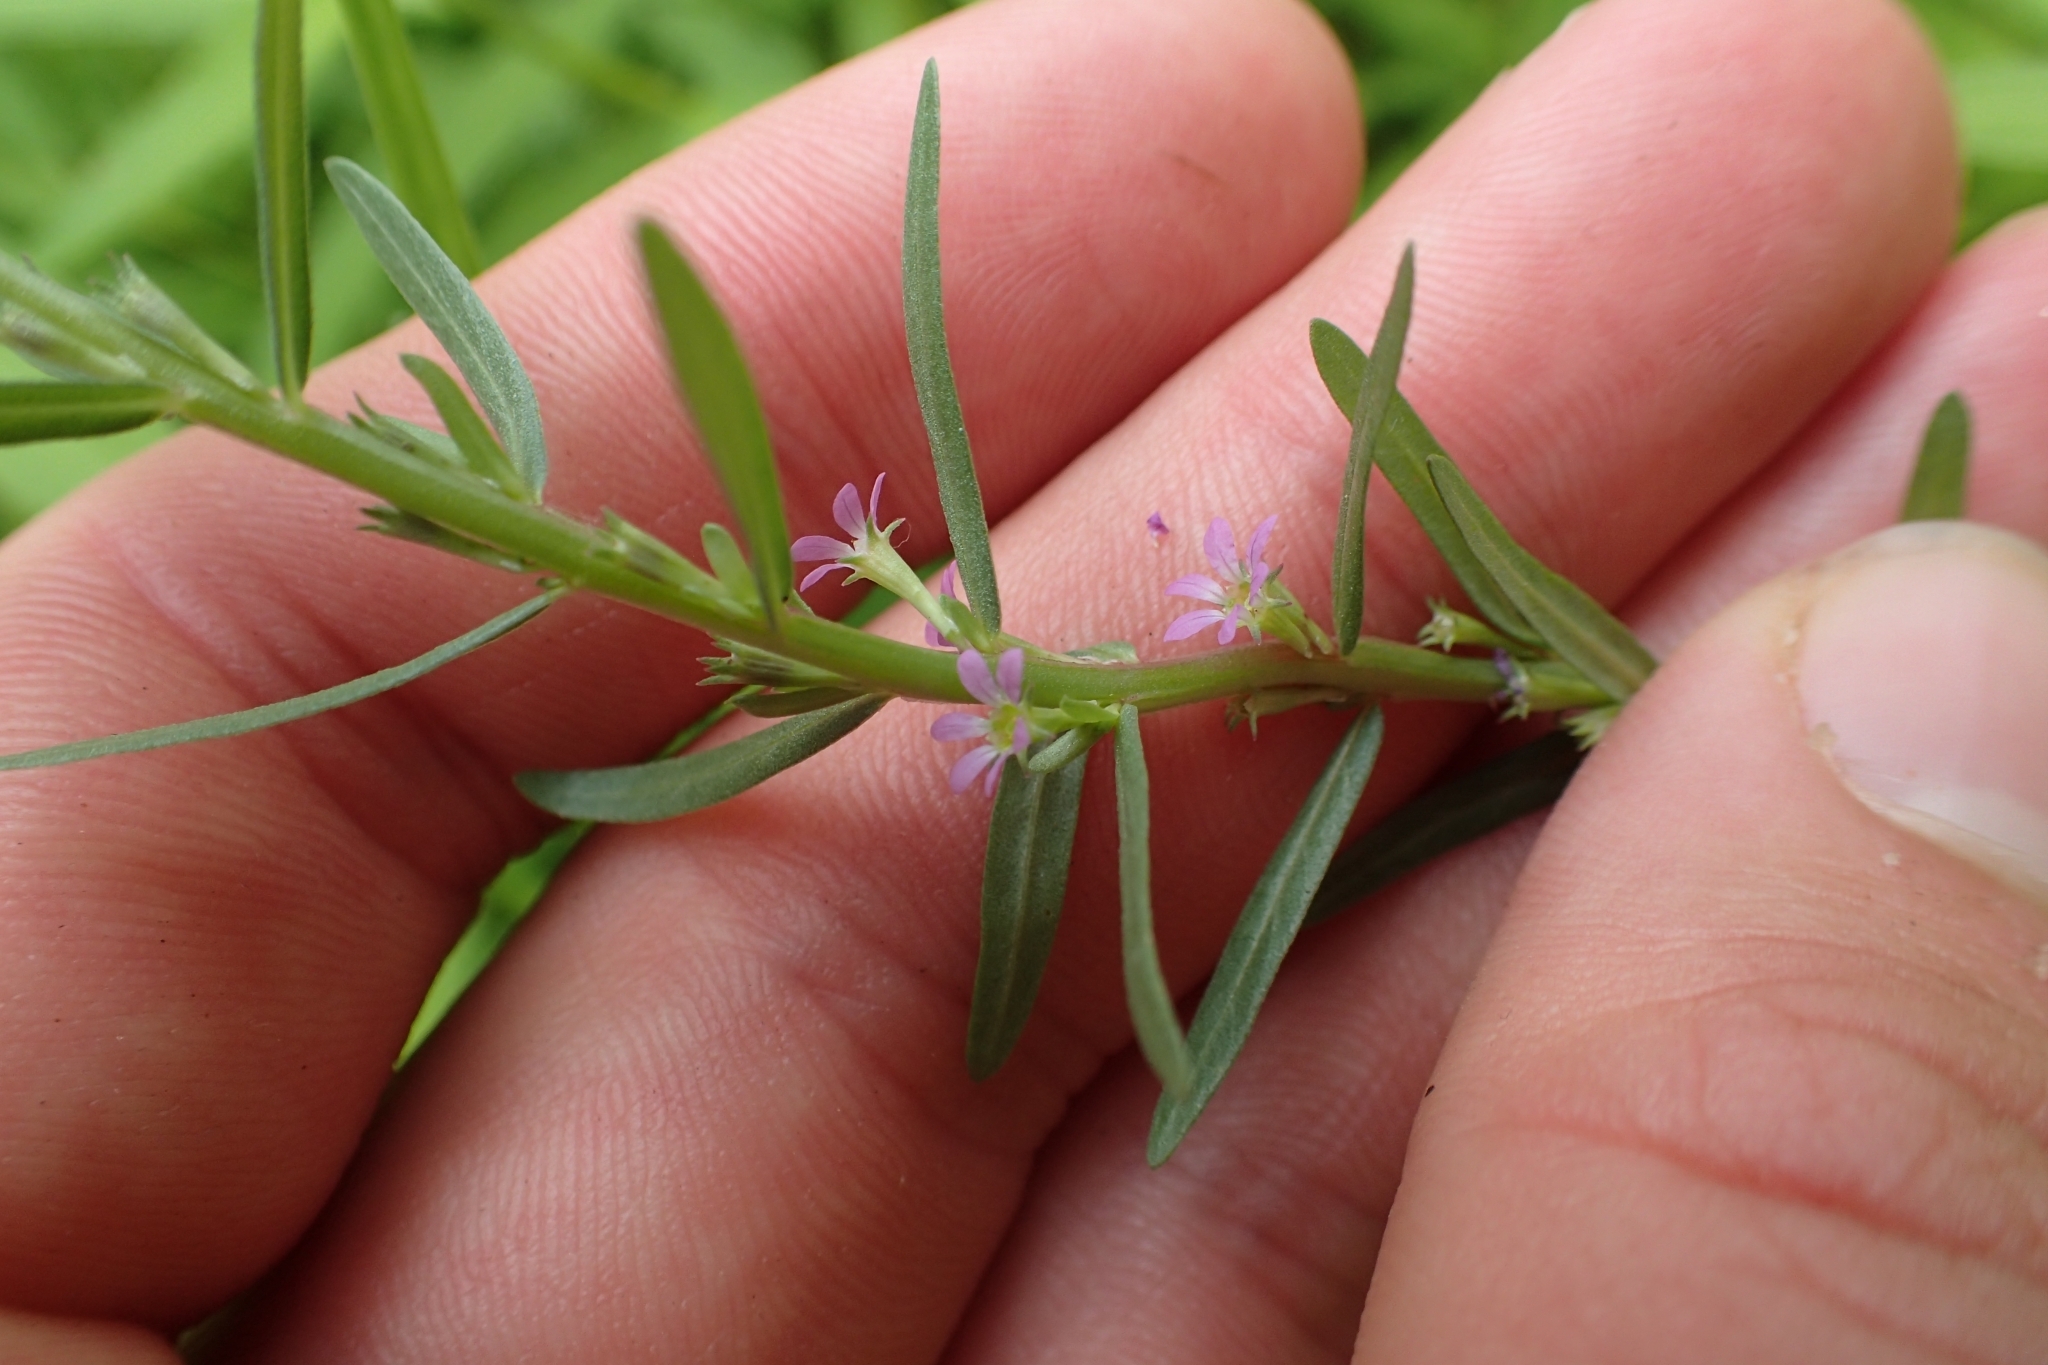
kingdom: Plantae
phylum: Tracheophyta
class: Magnoliopsida
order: Myrtales
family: Lythraceae
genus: Lythrum
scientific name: Lythrum hyssopifolia
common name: Grass-poly
